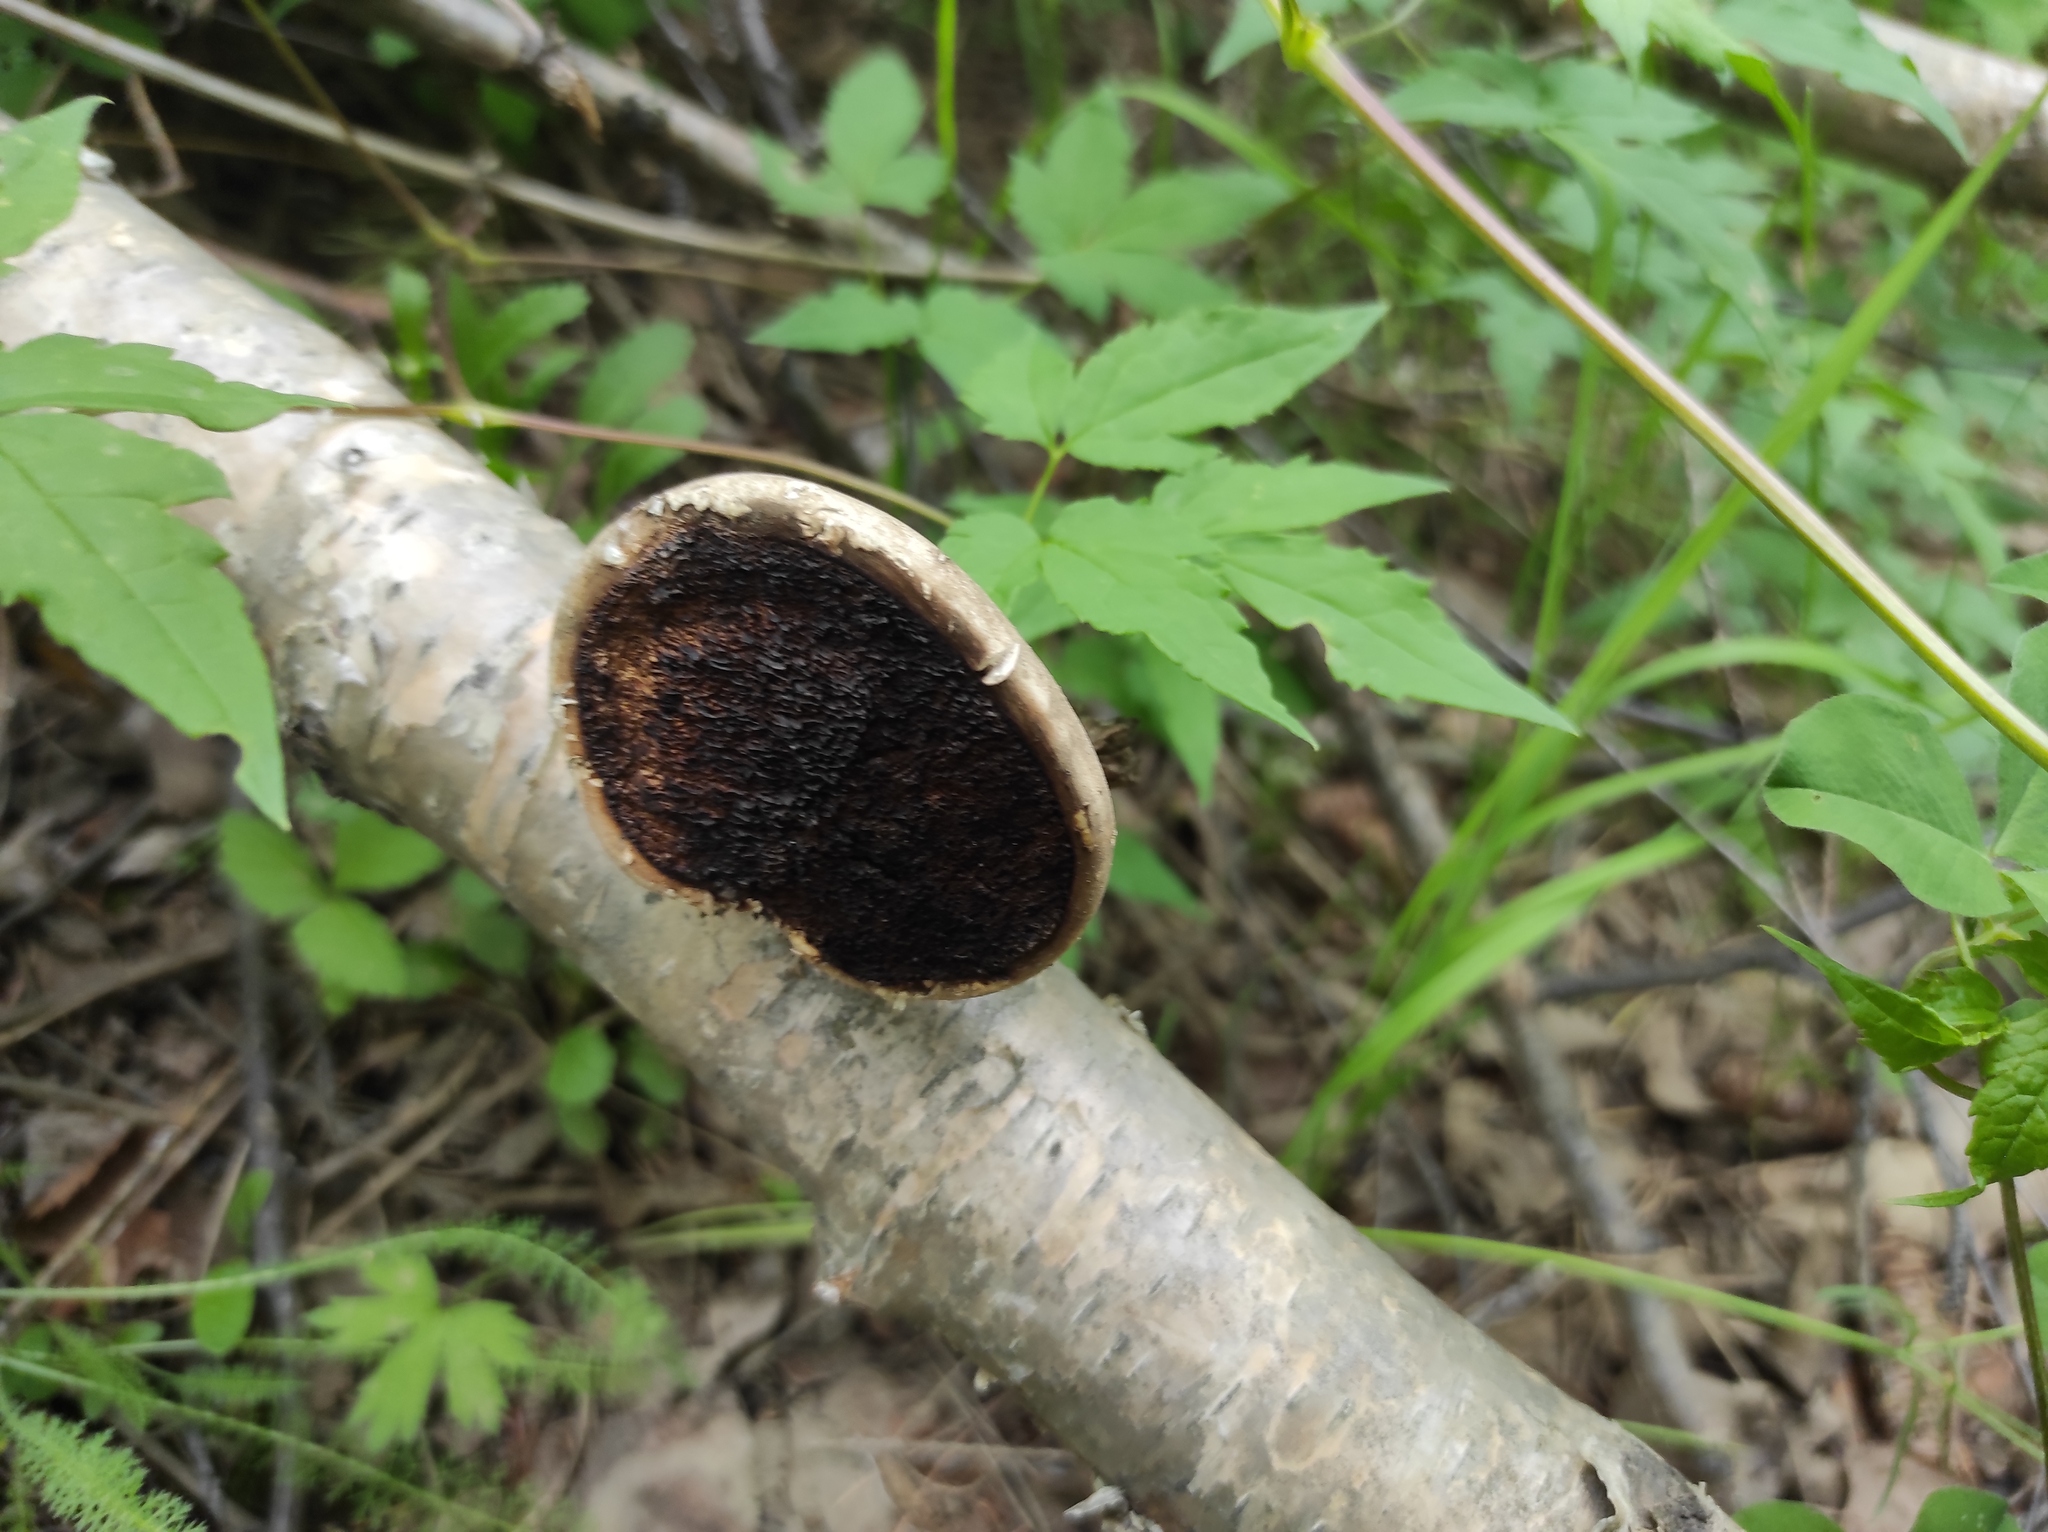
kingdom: Fungi
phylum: Basidiomycota
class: Agaricomycetes
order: Polyporales
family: Fomitopsidaceae
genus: Fomitopsis
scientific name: Fomitopsis betulina
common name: Birch polypore
